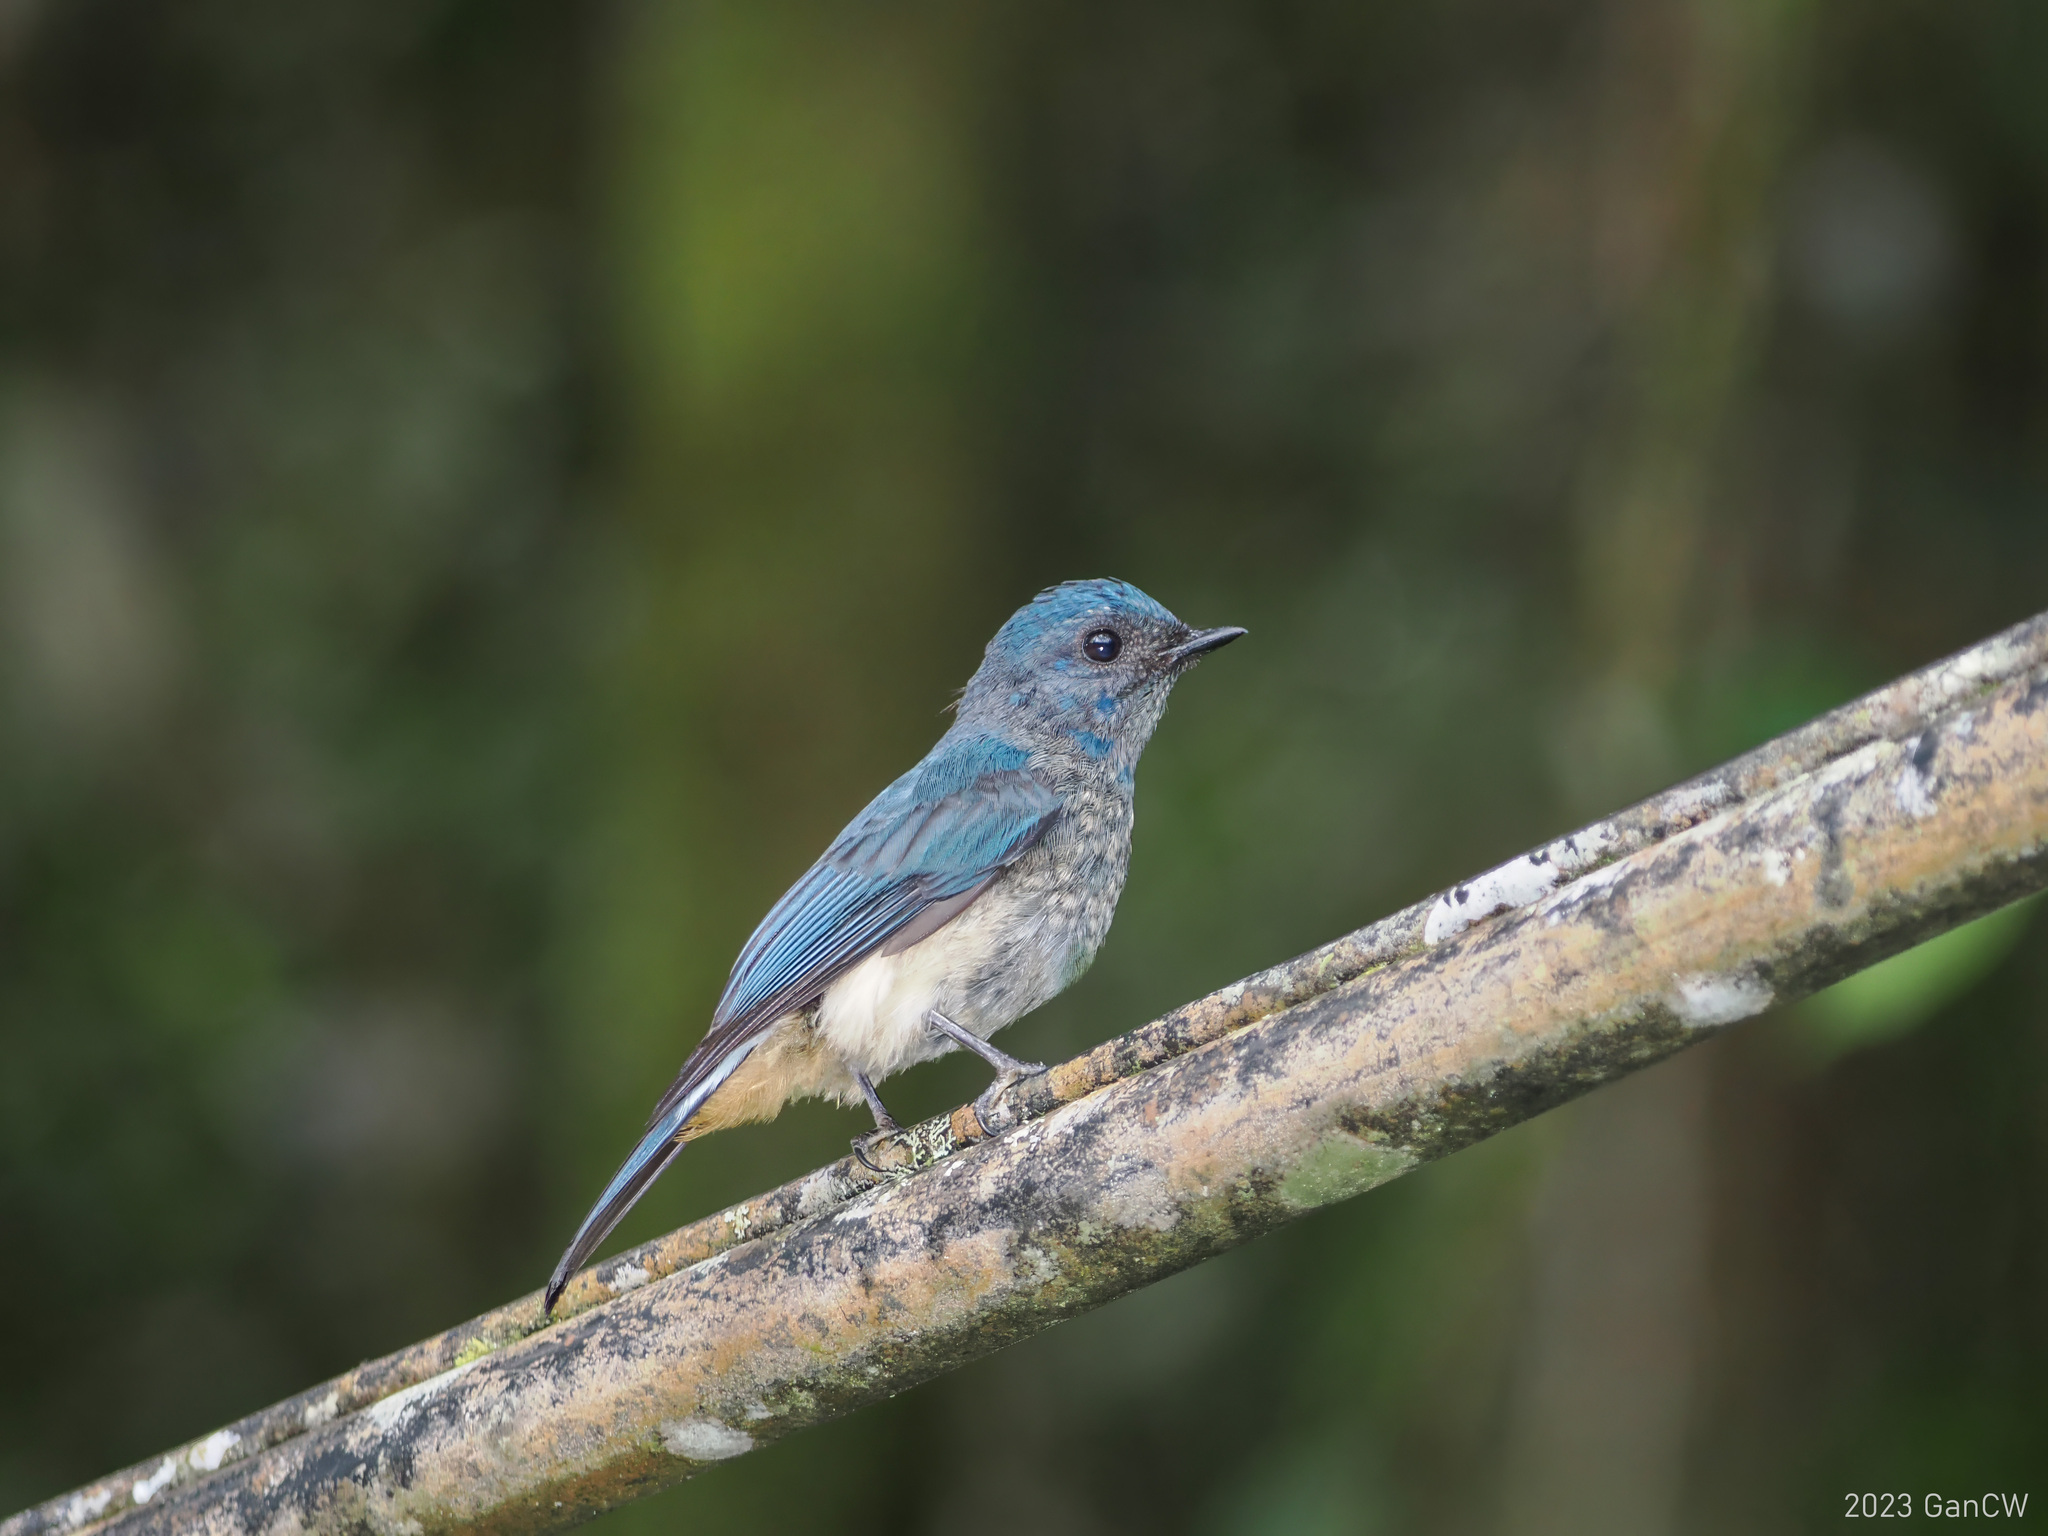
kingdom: Animalia
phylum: Chordata
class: Aves
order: Passeriformes
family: Muscicapidae
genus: Eumyias
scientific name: Eumyias indigo
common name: Indigo flycatcher
